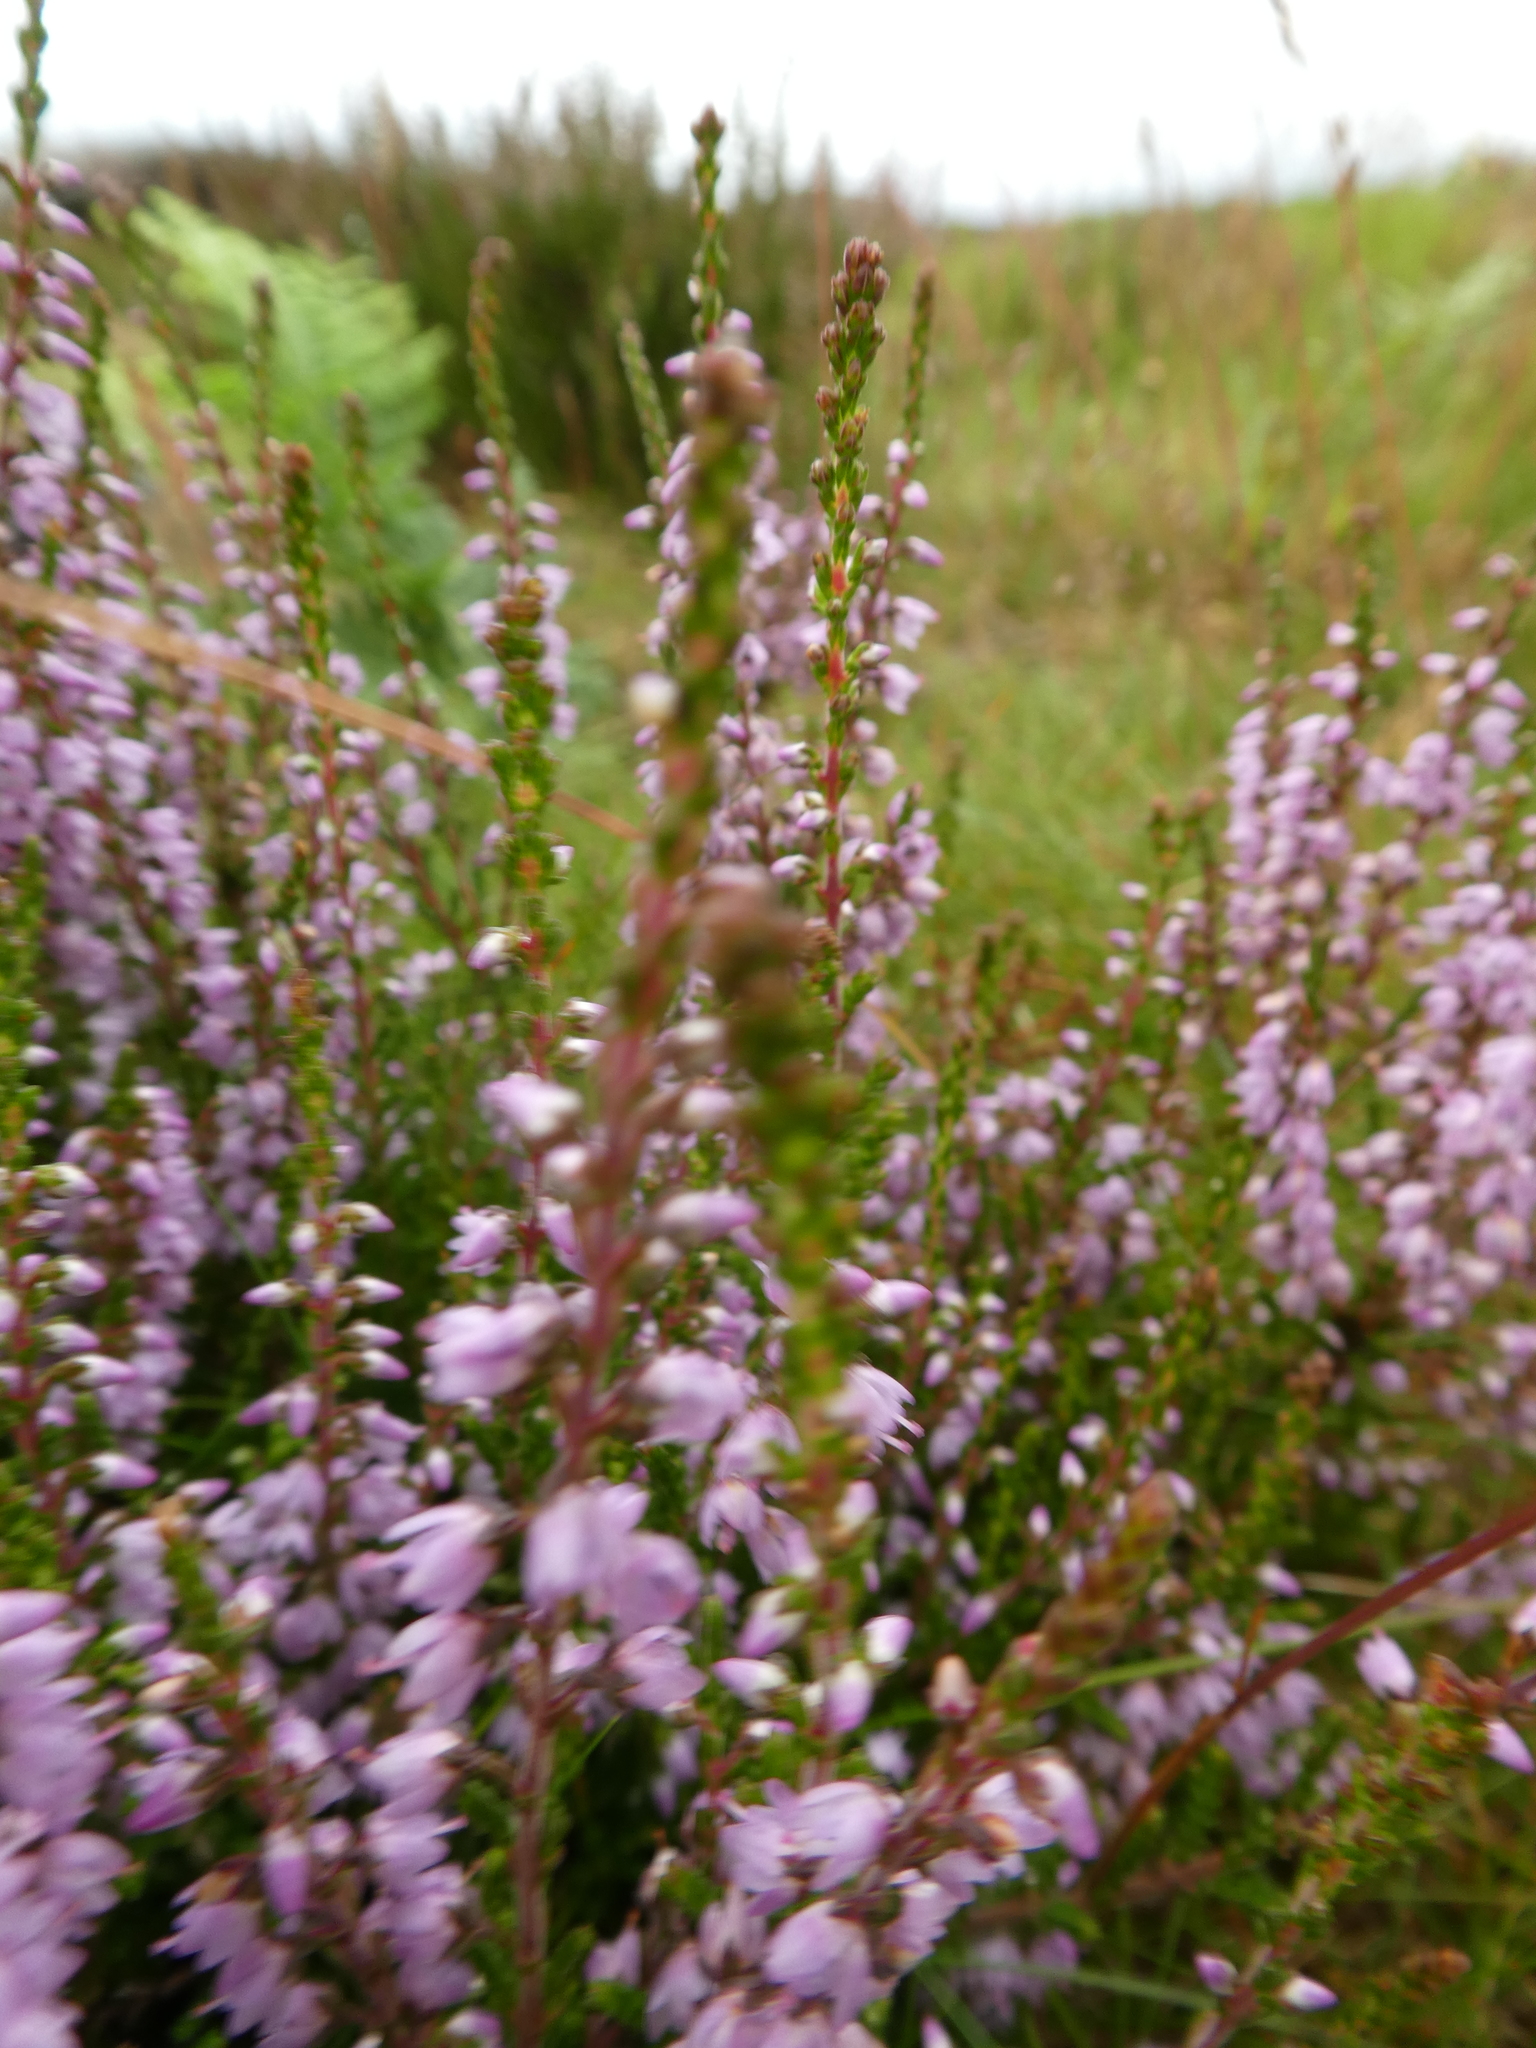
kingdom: Plantae
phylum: Tracheophyta
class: Magnoliopsida
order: Ericales
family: Ericaceae
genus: Calluna
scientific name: Calluna vulgaris
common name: Heather
